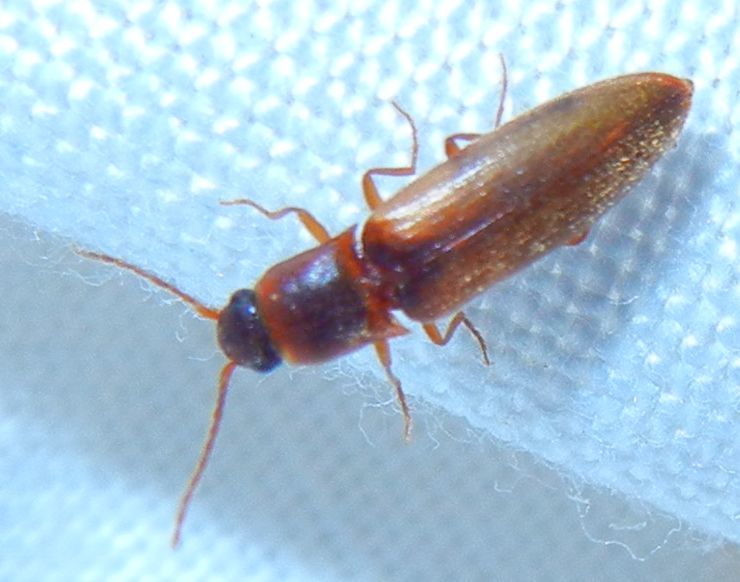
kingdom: Animalia
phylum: Arthropoda
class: Insecta
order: Coleoptera
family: Elateridae
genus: Dalopius
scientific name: Dalopius marginatus
